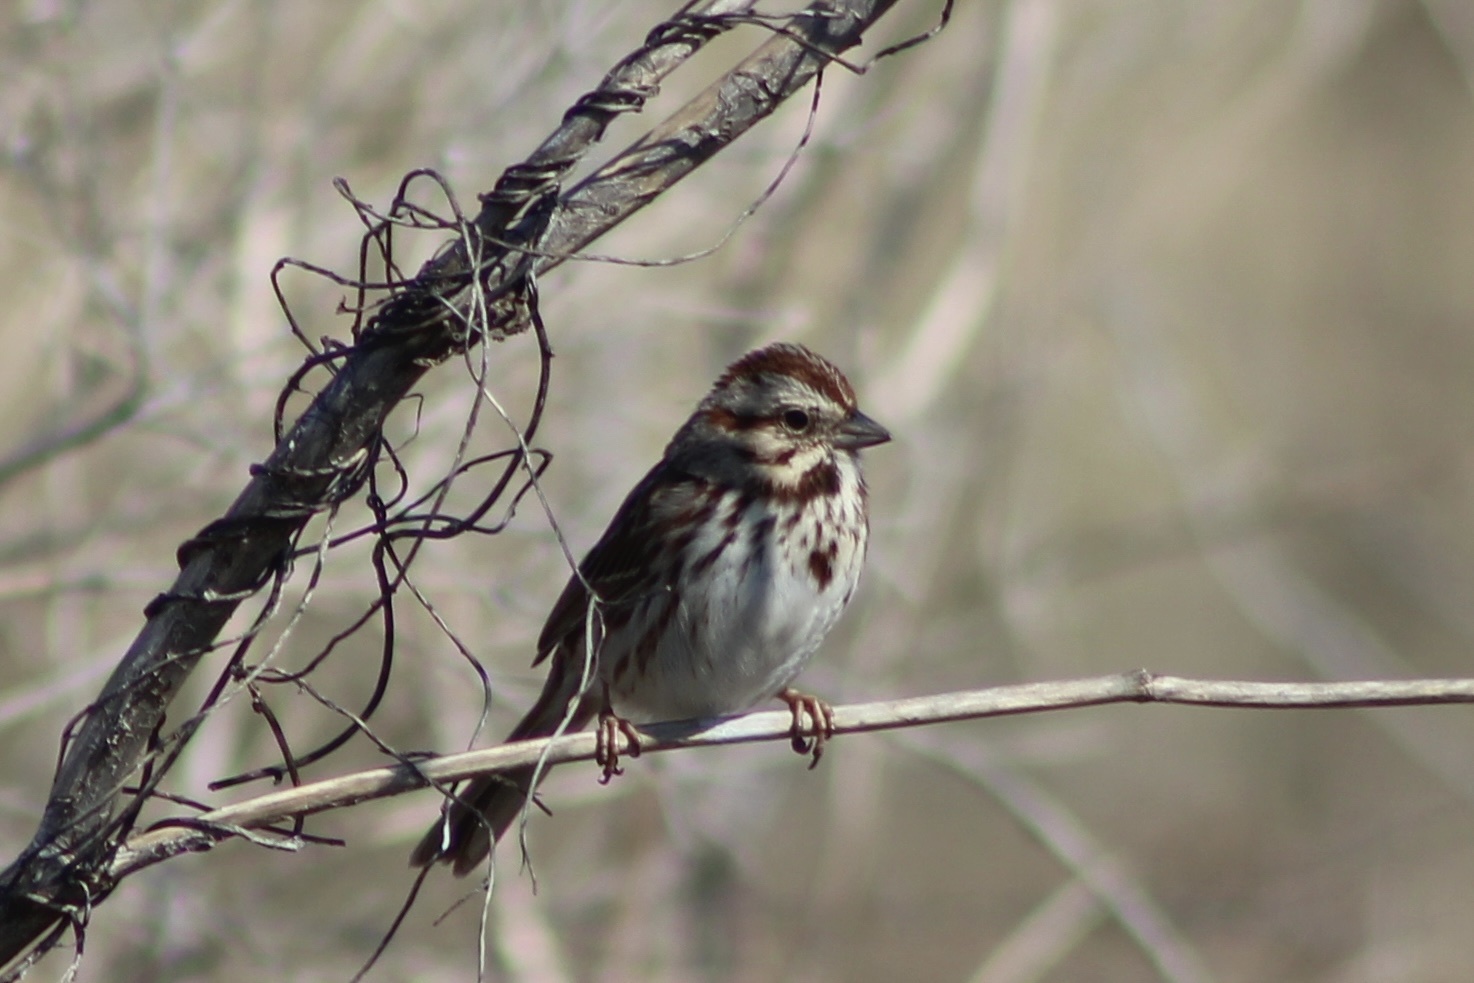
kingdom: Animalia
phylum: Chordata
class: Aves
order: Passeriformes
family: Passerellidae
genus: Melospiza
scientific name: Melospiza melodia
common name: Song sparrow
